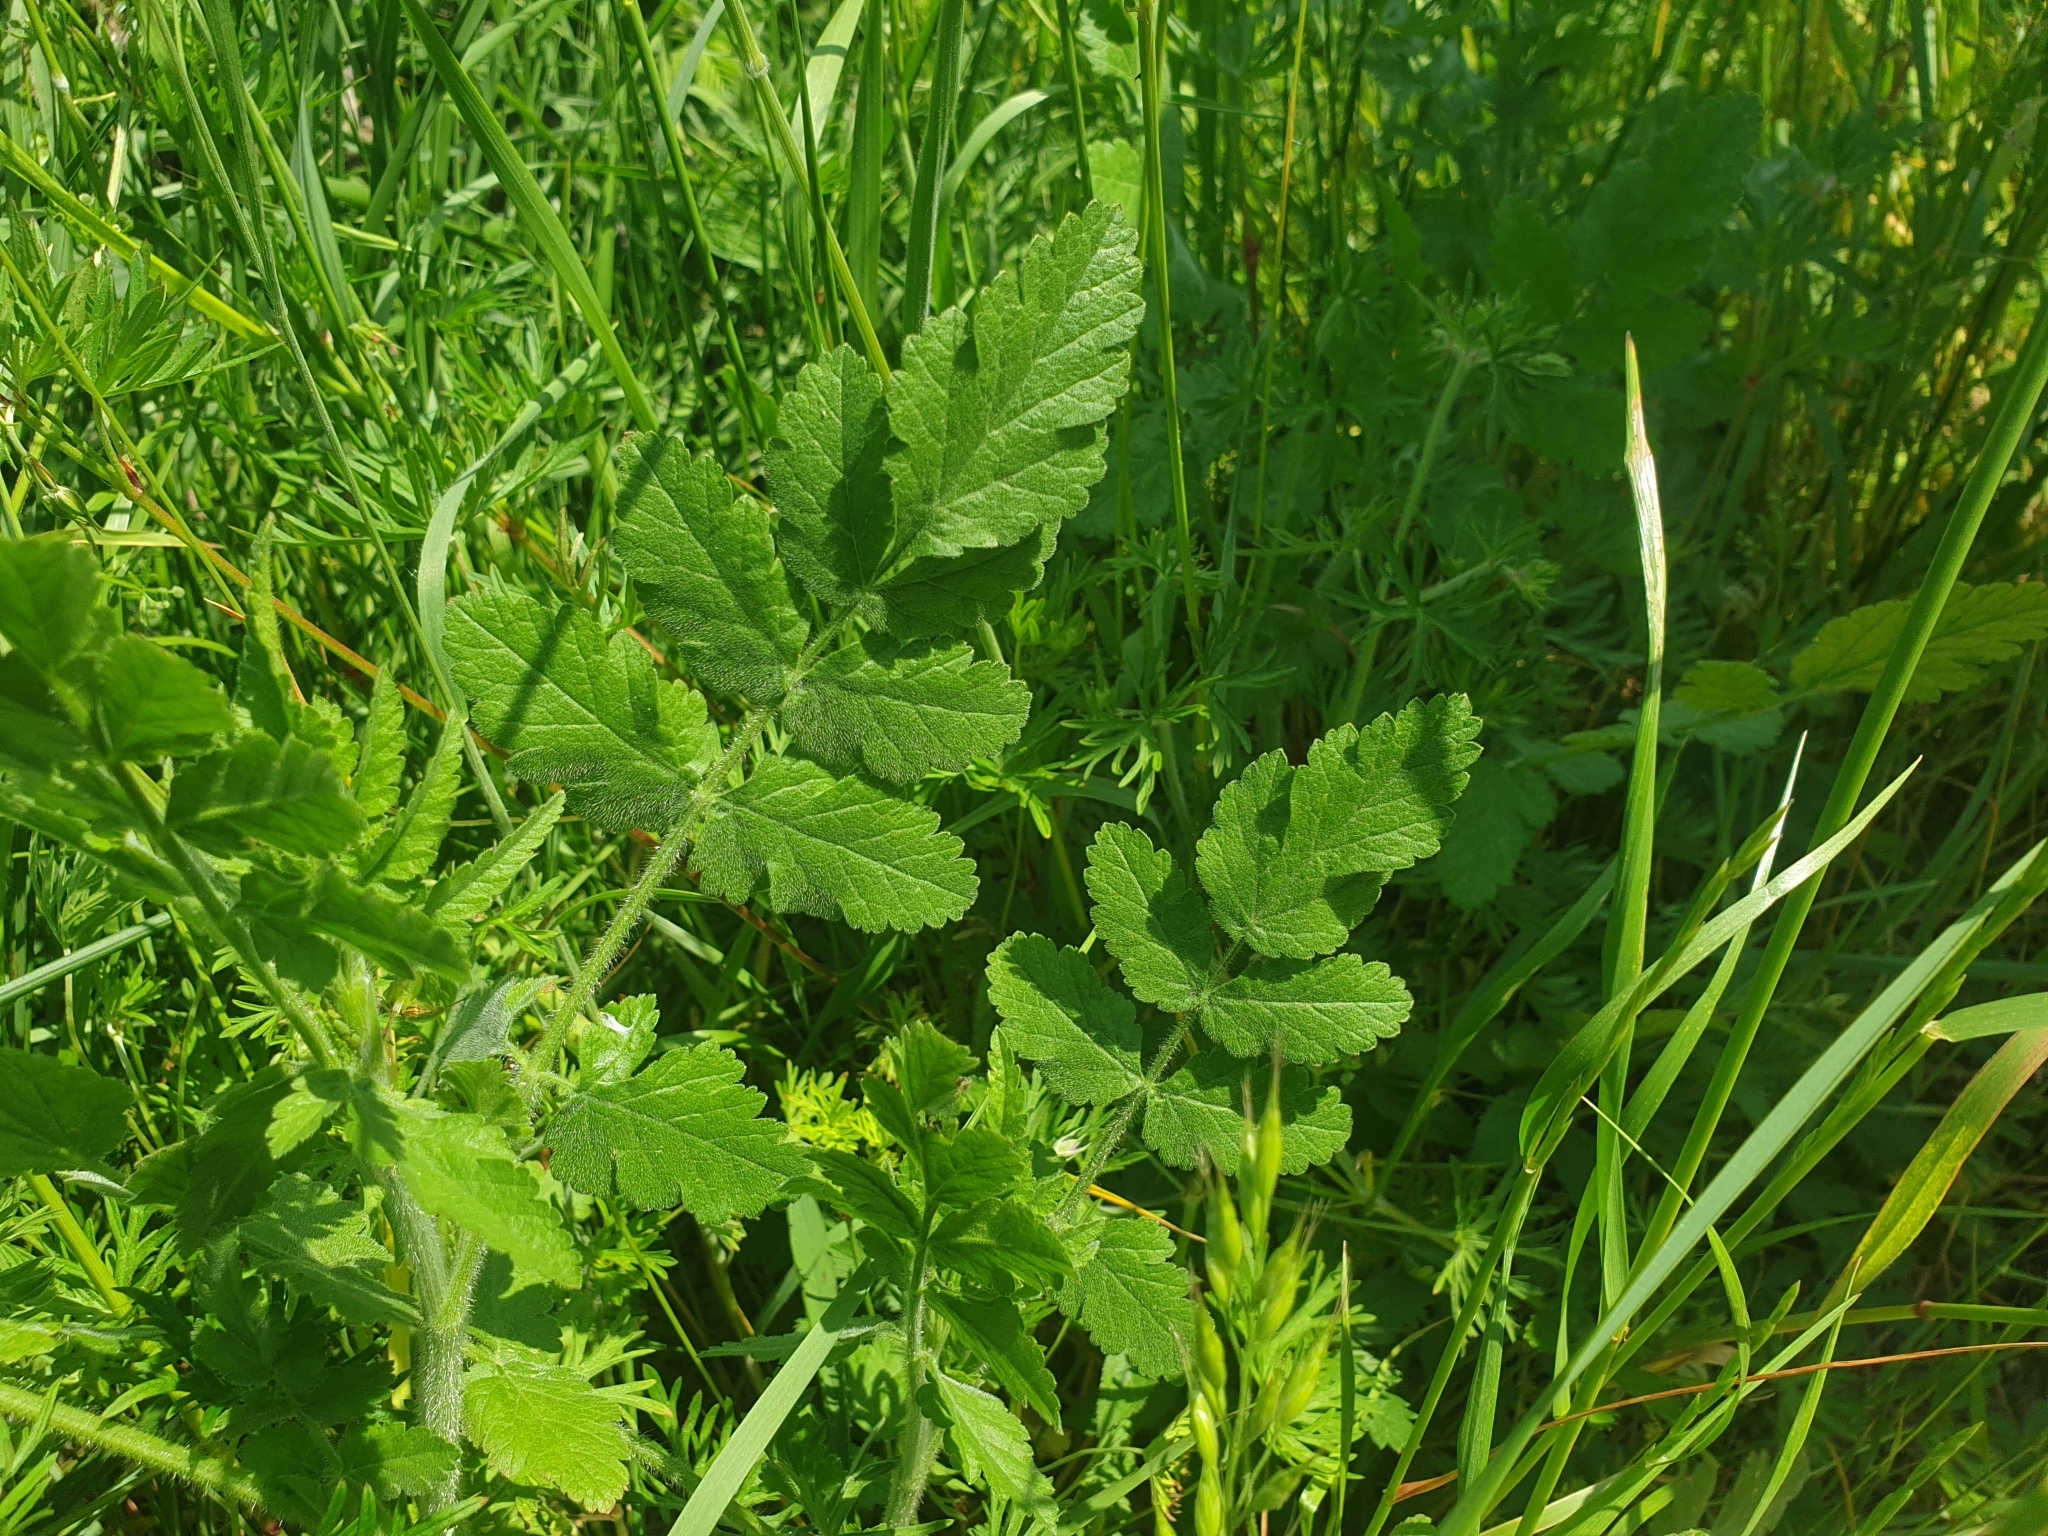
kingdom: Plantae
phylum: Tracheophyta
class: Magnoliopsida
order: Apiales
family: Apiaceae
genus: Tordylium
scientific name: Tordylium maximum
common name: Hartwort
